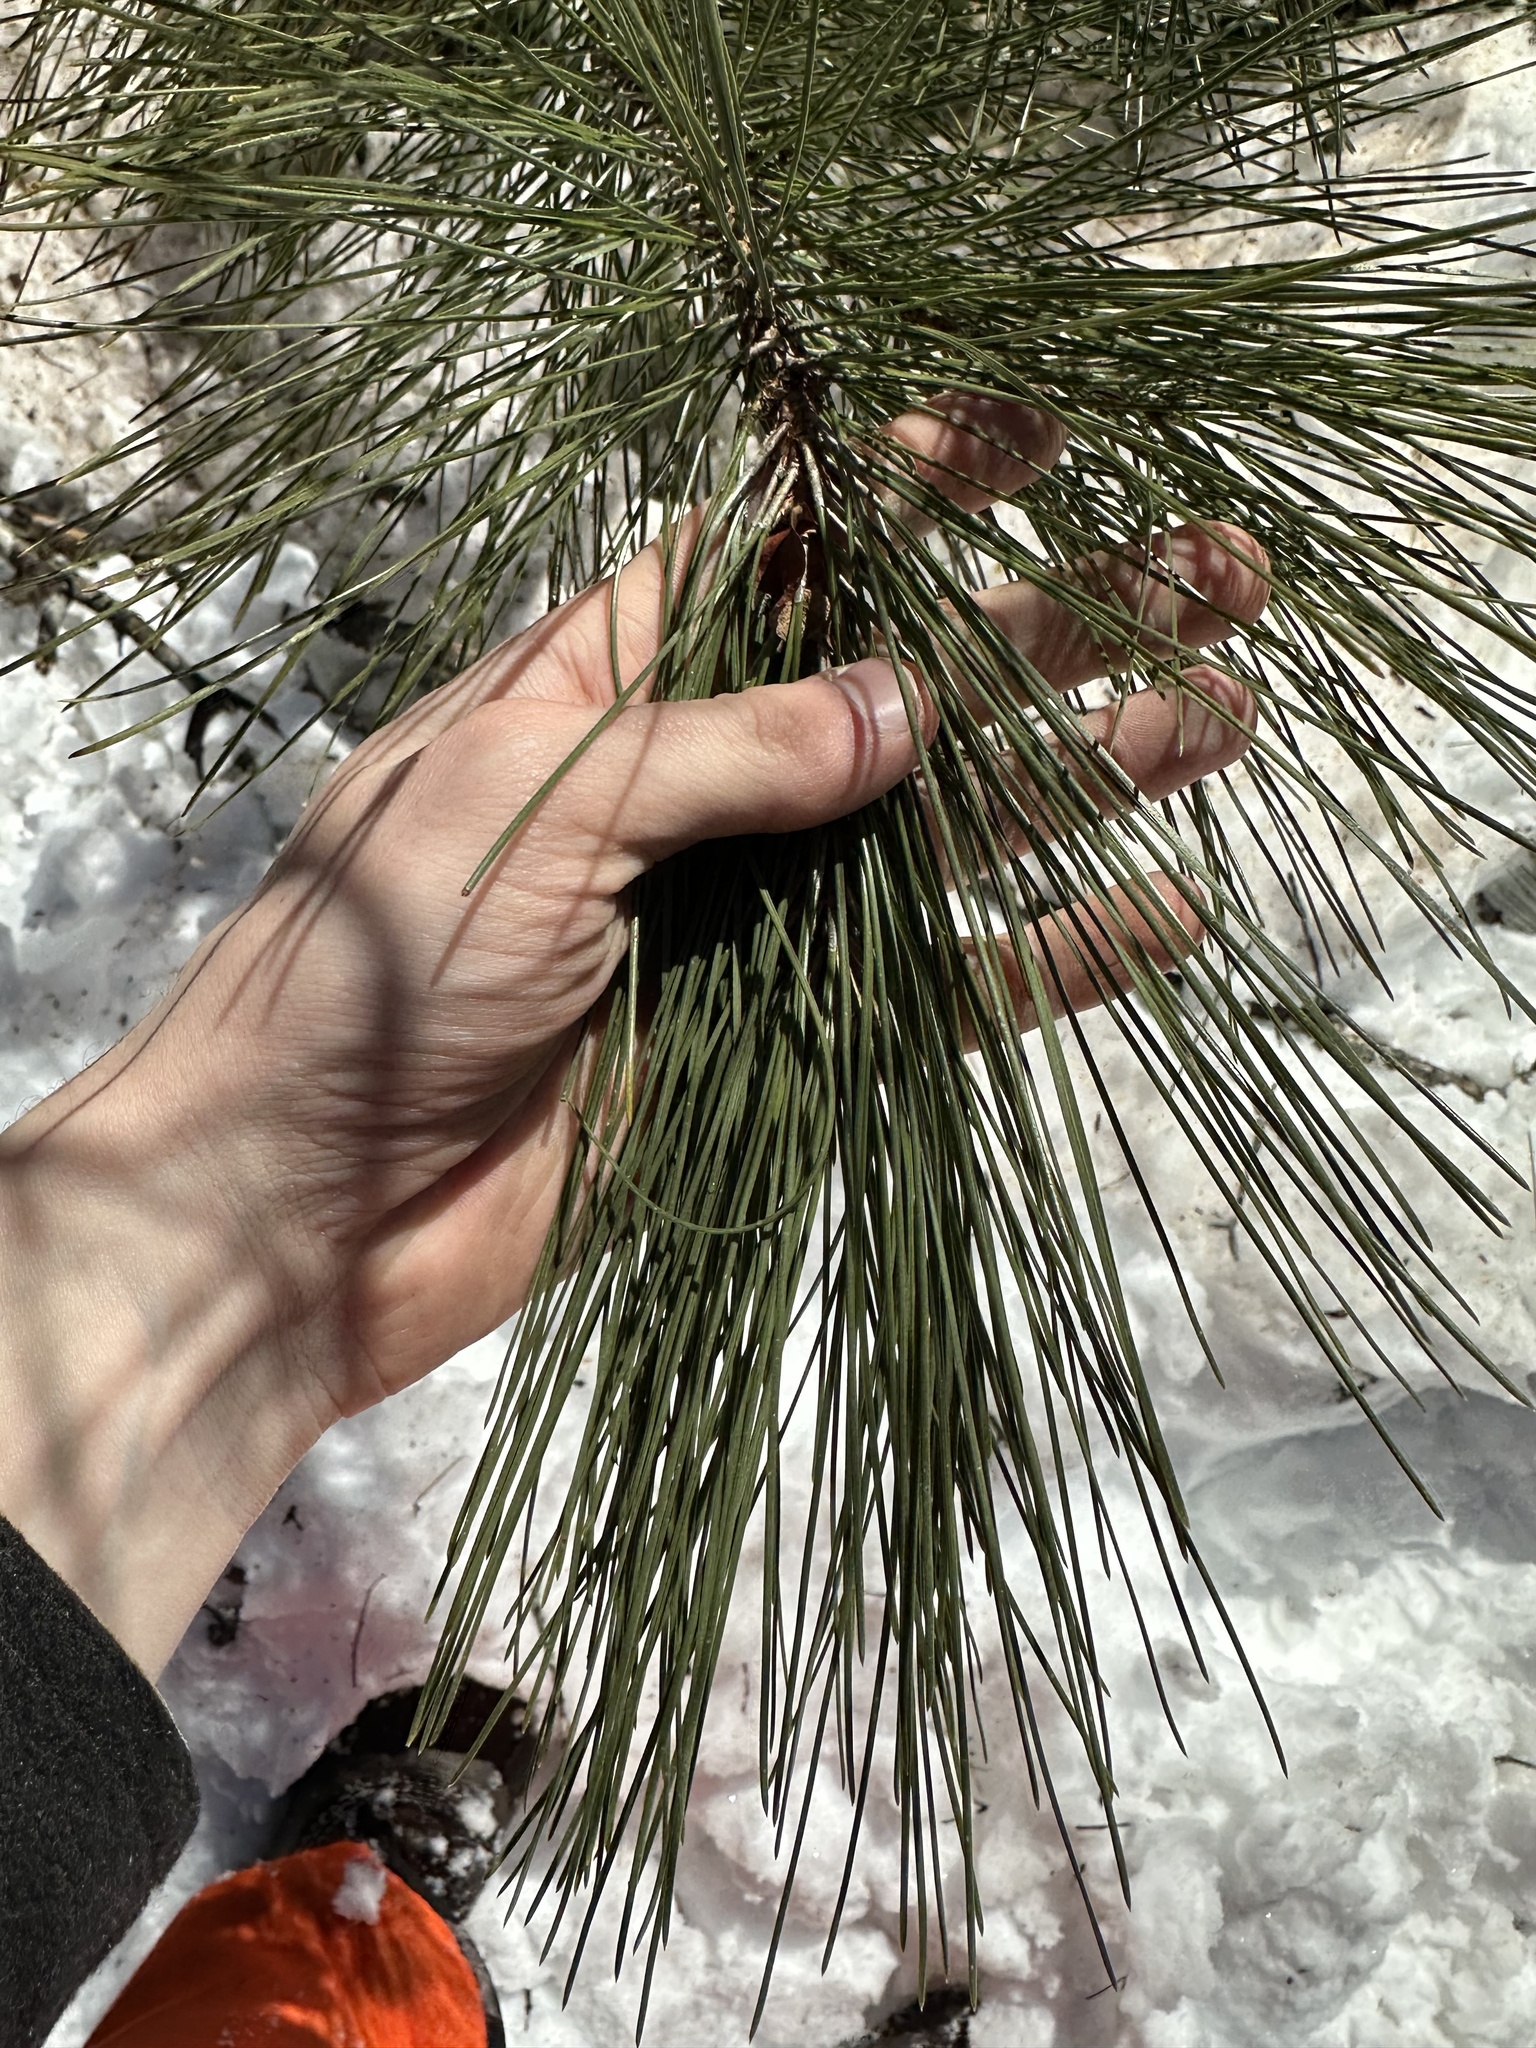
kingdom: Plantae
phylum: Tracheophyta
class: Pinopsida
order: Pinales
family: Pinaceae
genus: Pinus
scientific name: Pinus resinosa
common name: Norway pine
